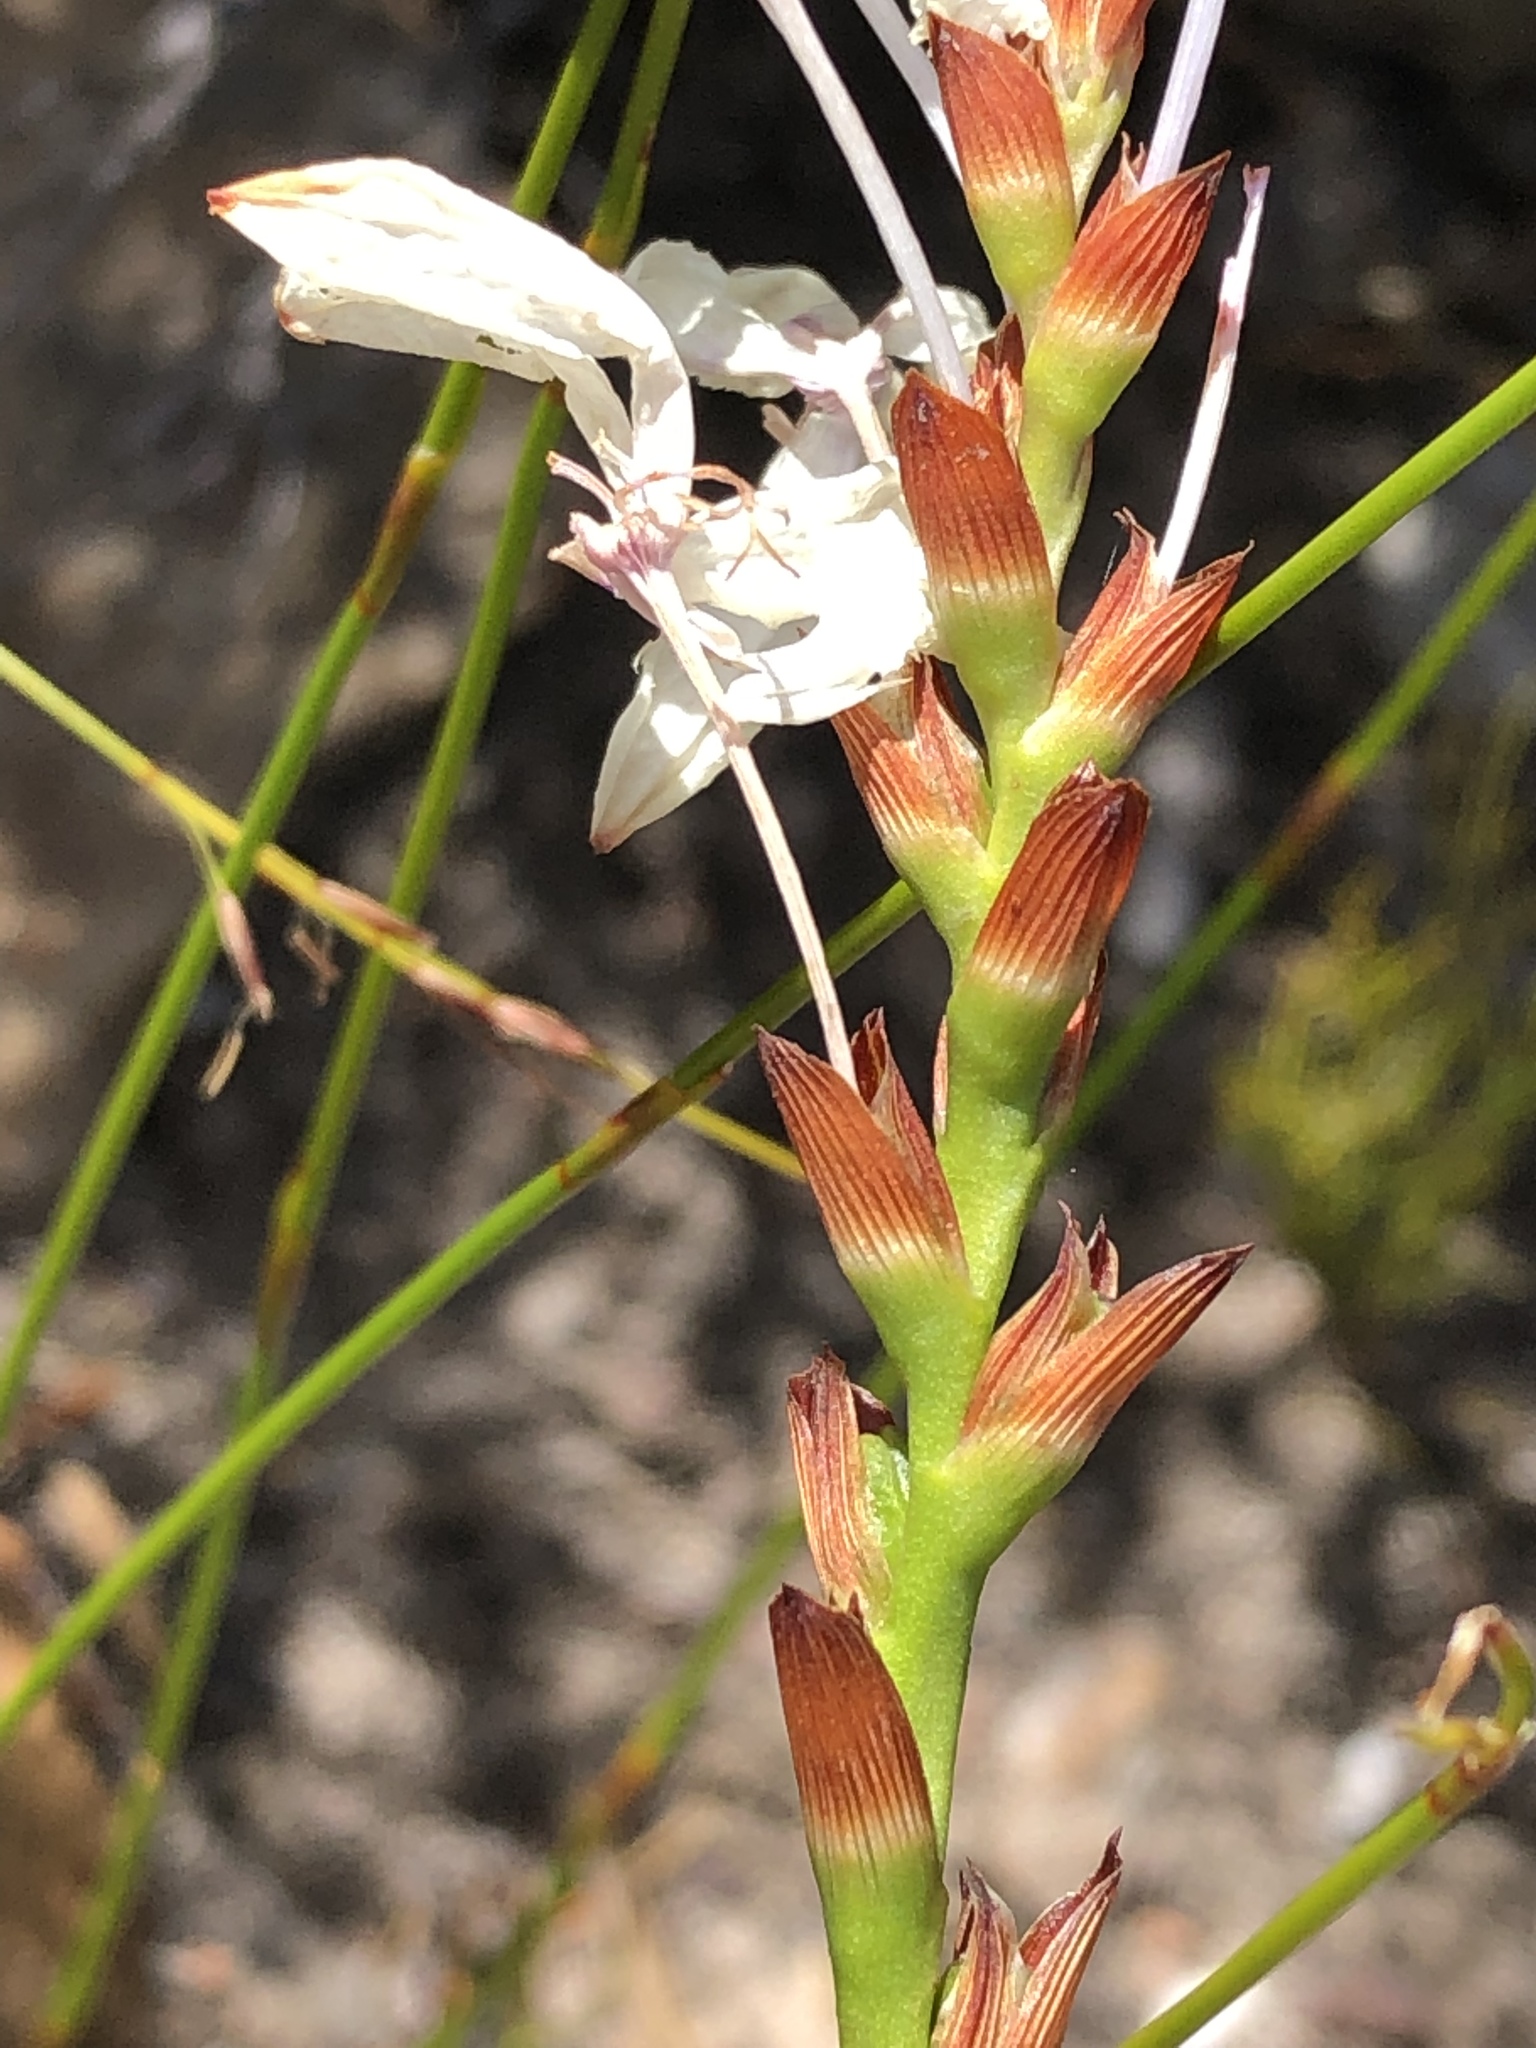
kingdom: Plantae
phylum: Tracheophyta
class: Liliopsida
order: Asparagales
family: Iridaceae
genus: Thereianthus
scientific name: Thereianthus ixioides
